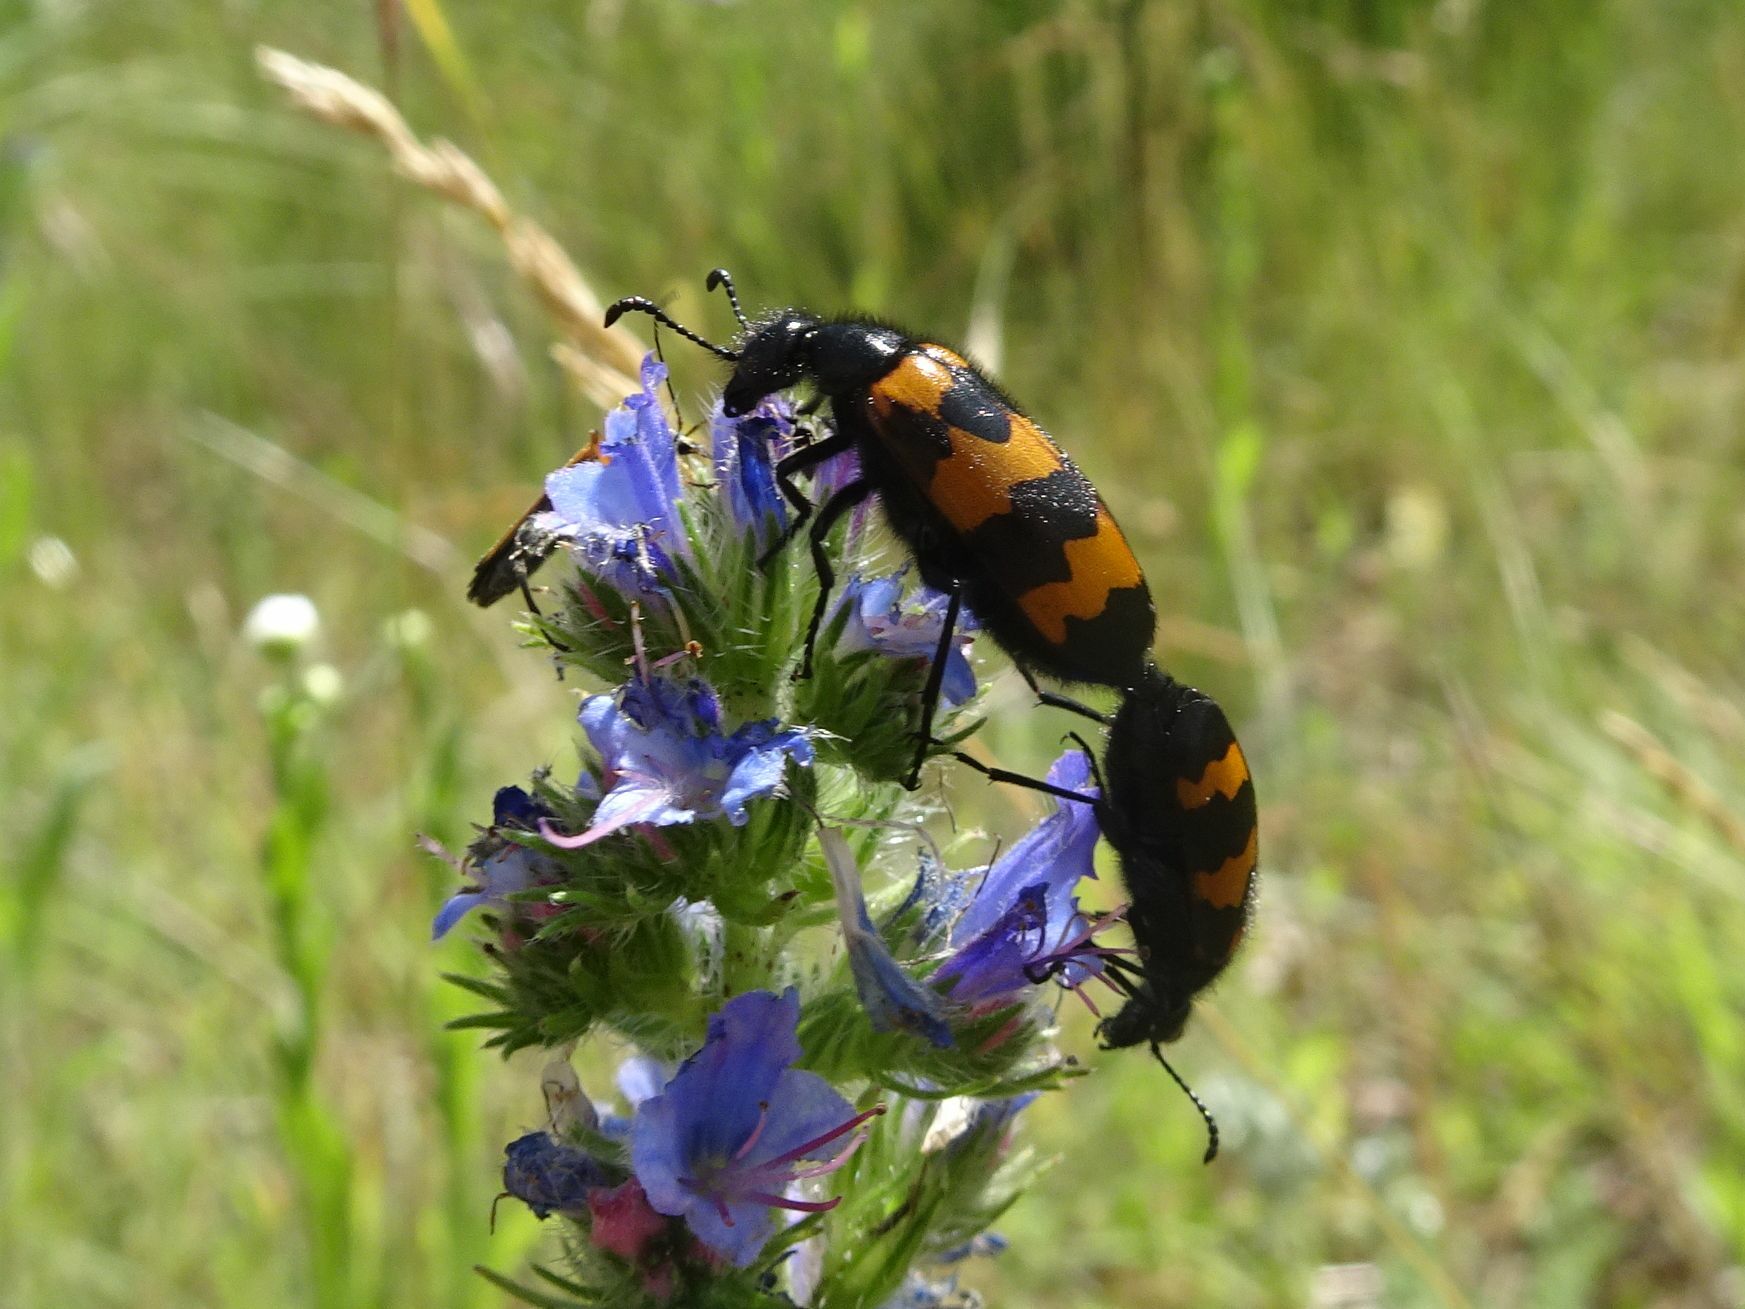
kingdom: Animalia
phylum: Arthropoda
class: Insecta
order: Coleoptera
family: Meloidae
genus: Mylabris
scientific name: Mylabris variabilis
